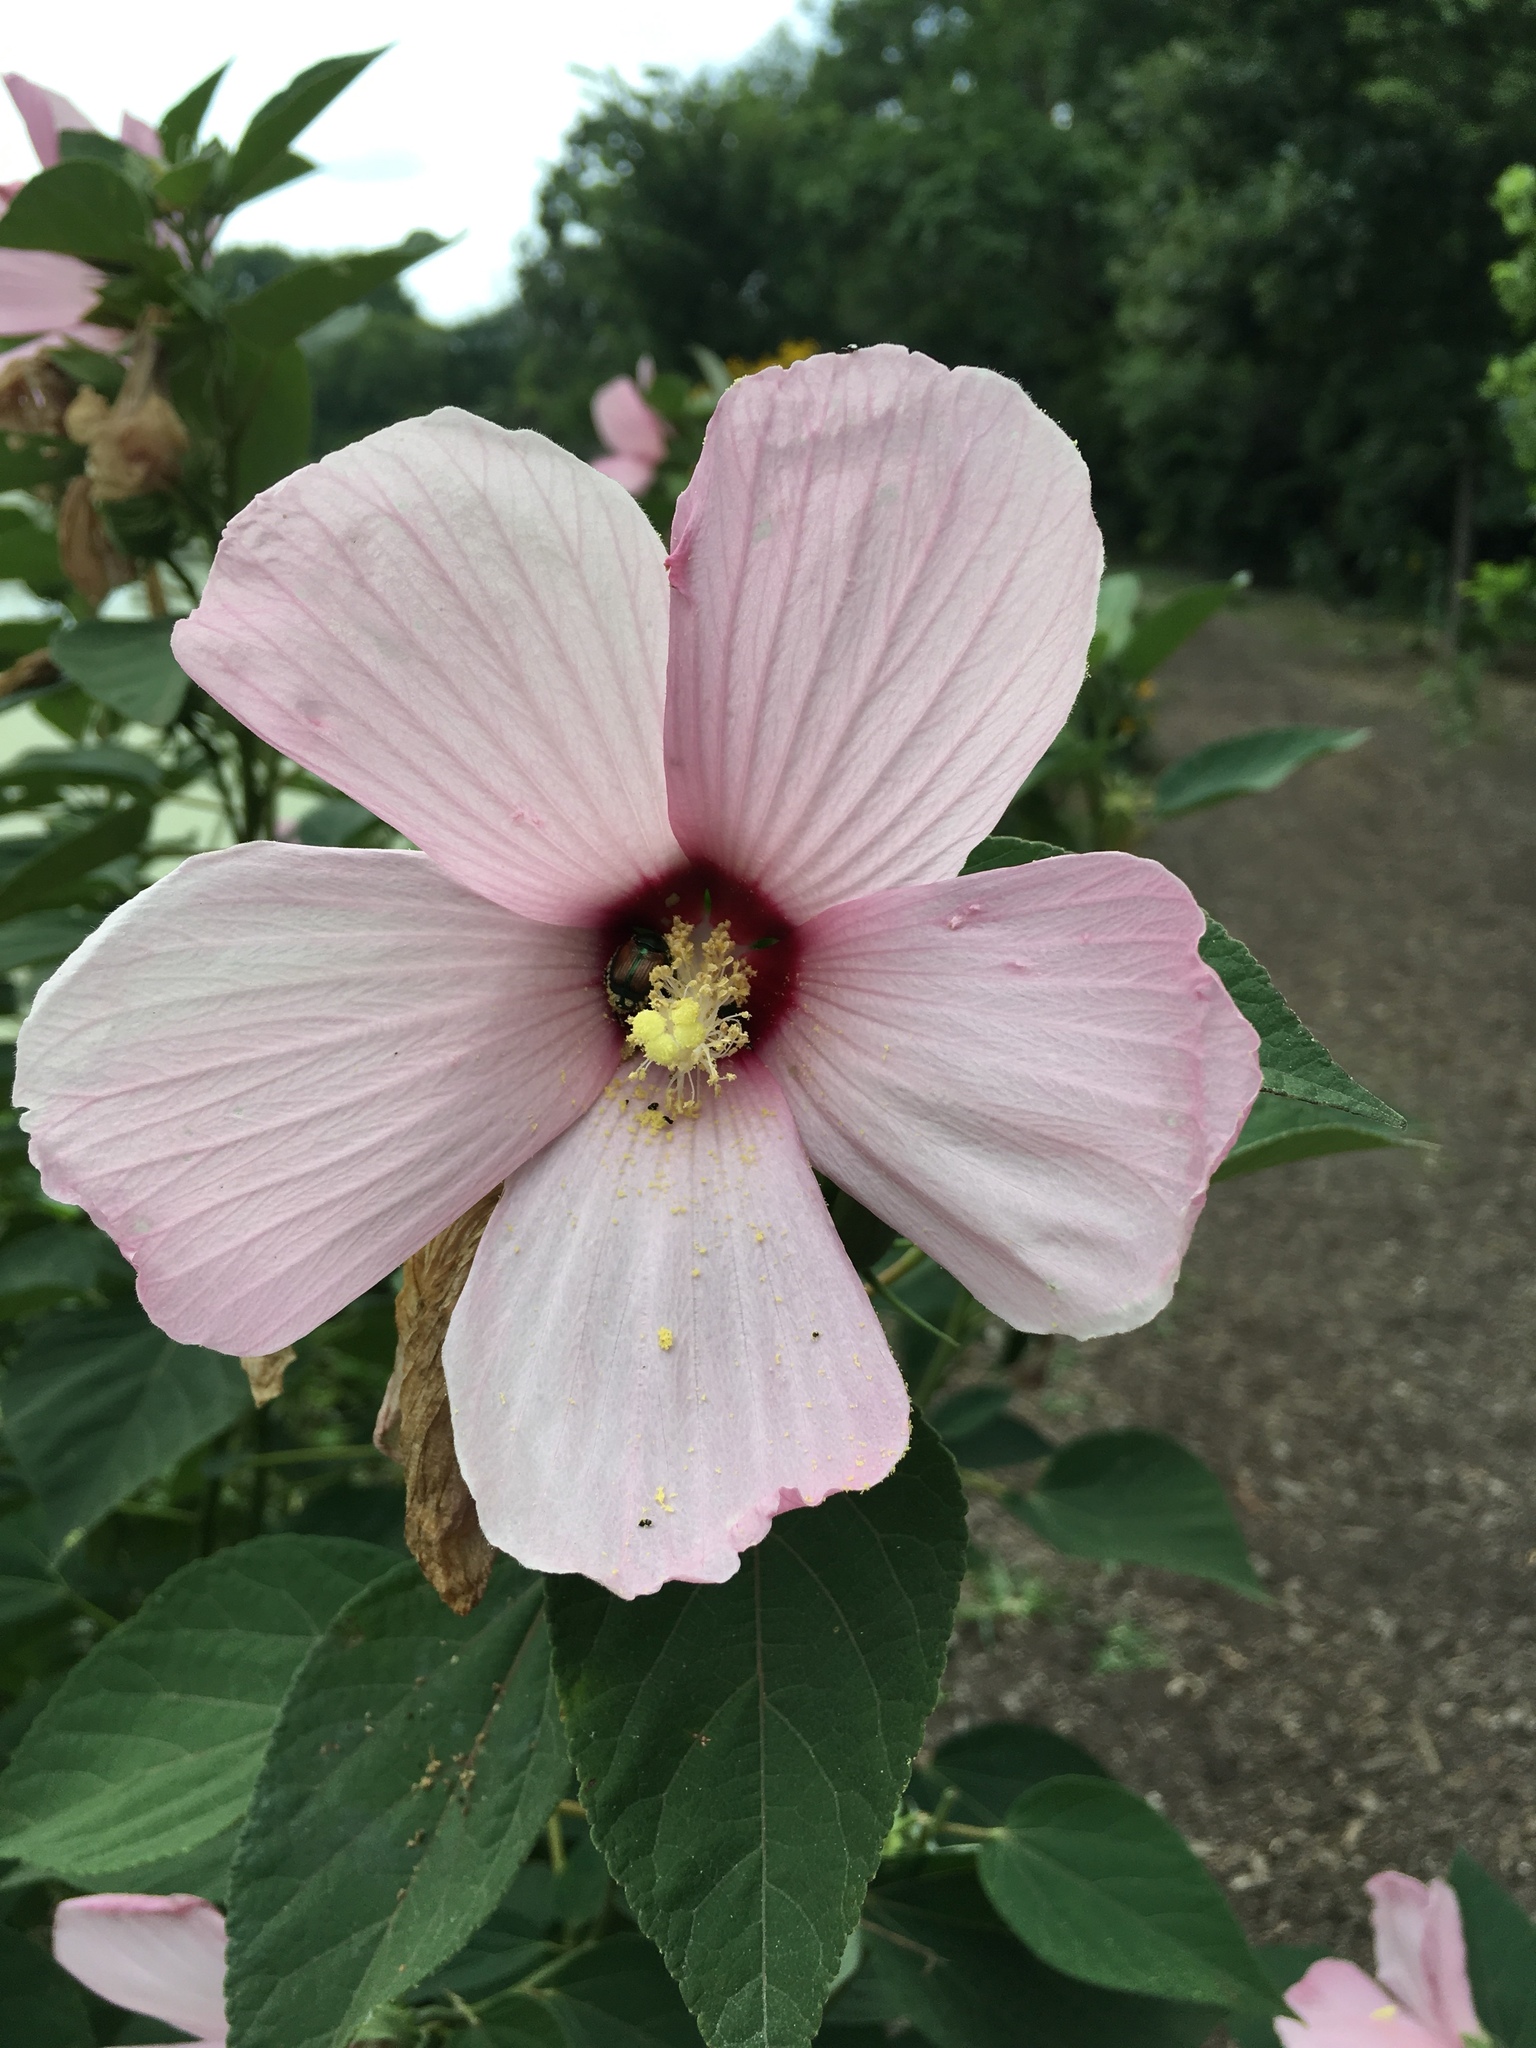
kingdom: Plantae
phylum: Tracheophyta
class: Magnoliopsida
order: Malvales
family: Malvaceae
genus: Hibiscus
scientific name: Hibiscus moscheutos
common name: Common rose-mallow
